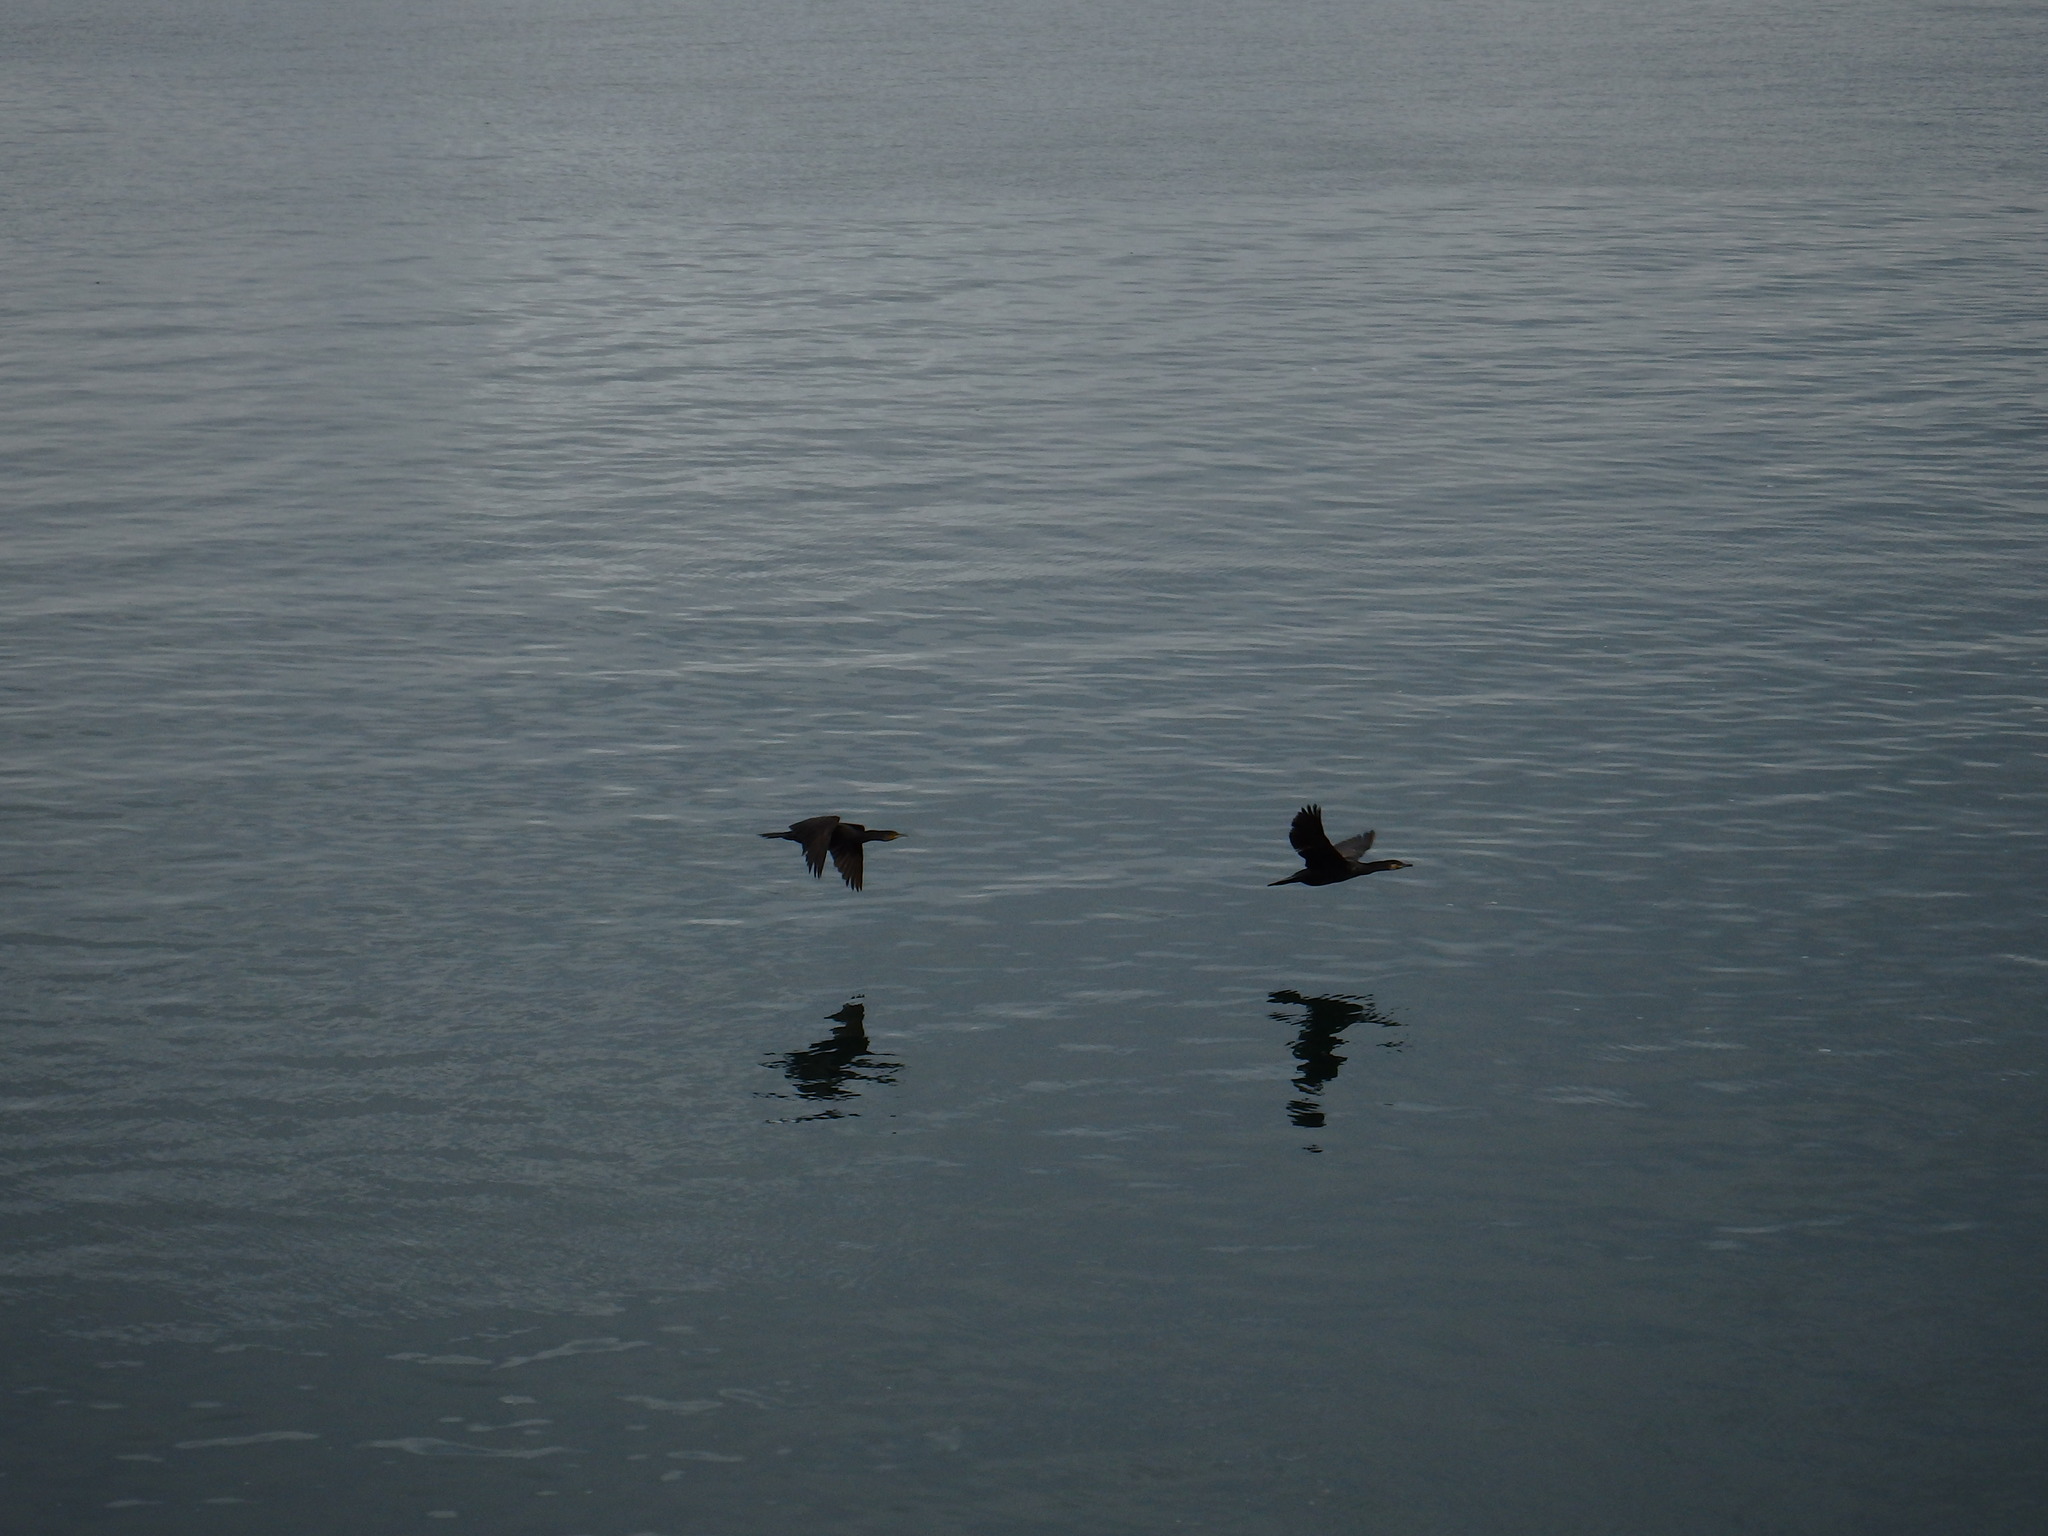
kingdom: Animalia
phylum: Chordata
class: Aves
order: Suliformes
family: Phalacrocoracidae
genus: Phalacrocorax
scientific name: Phalacrocorax carbo
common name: Great cormorant
